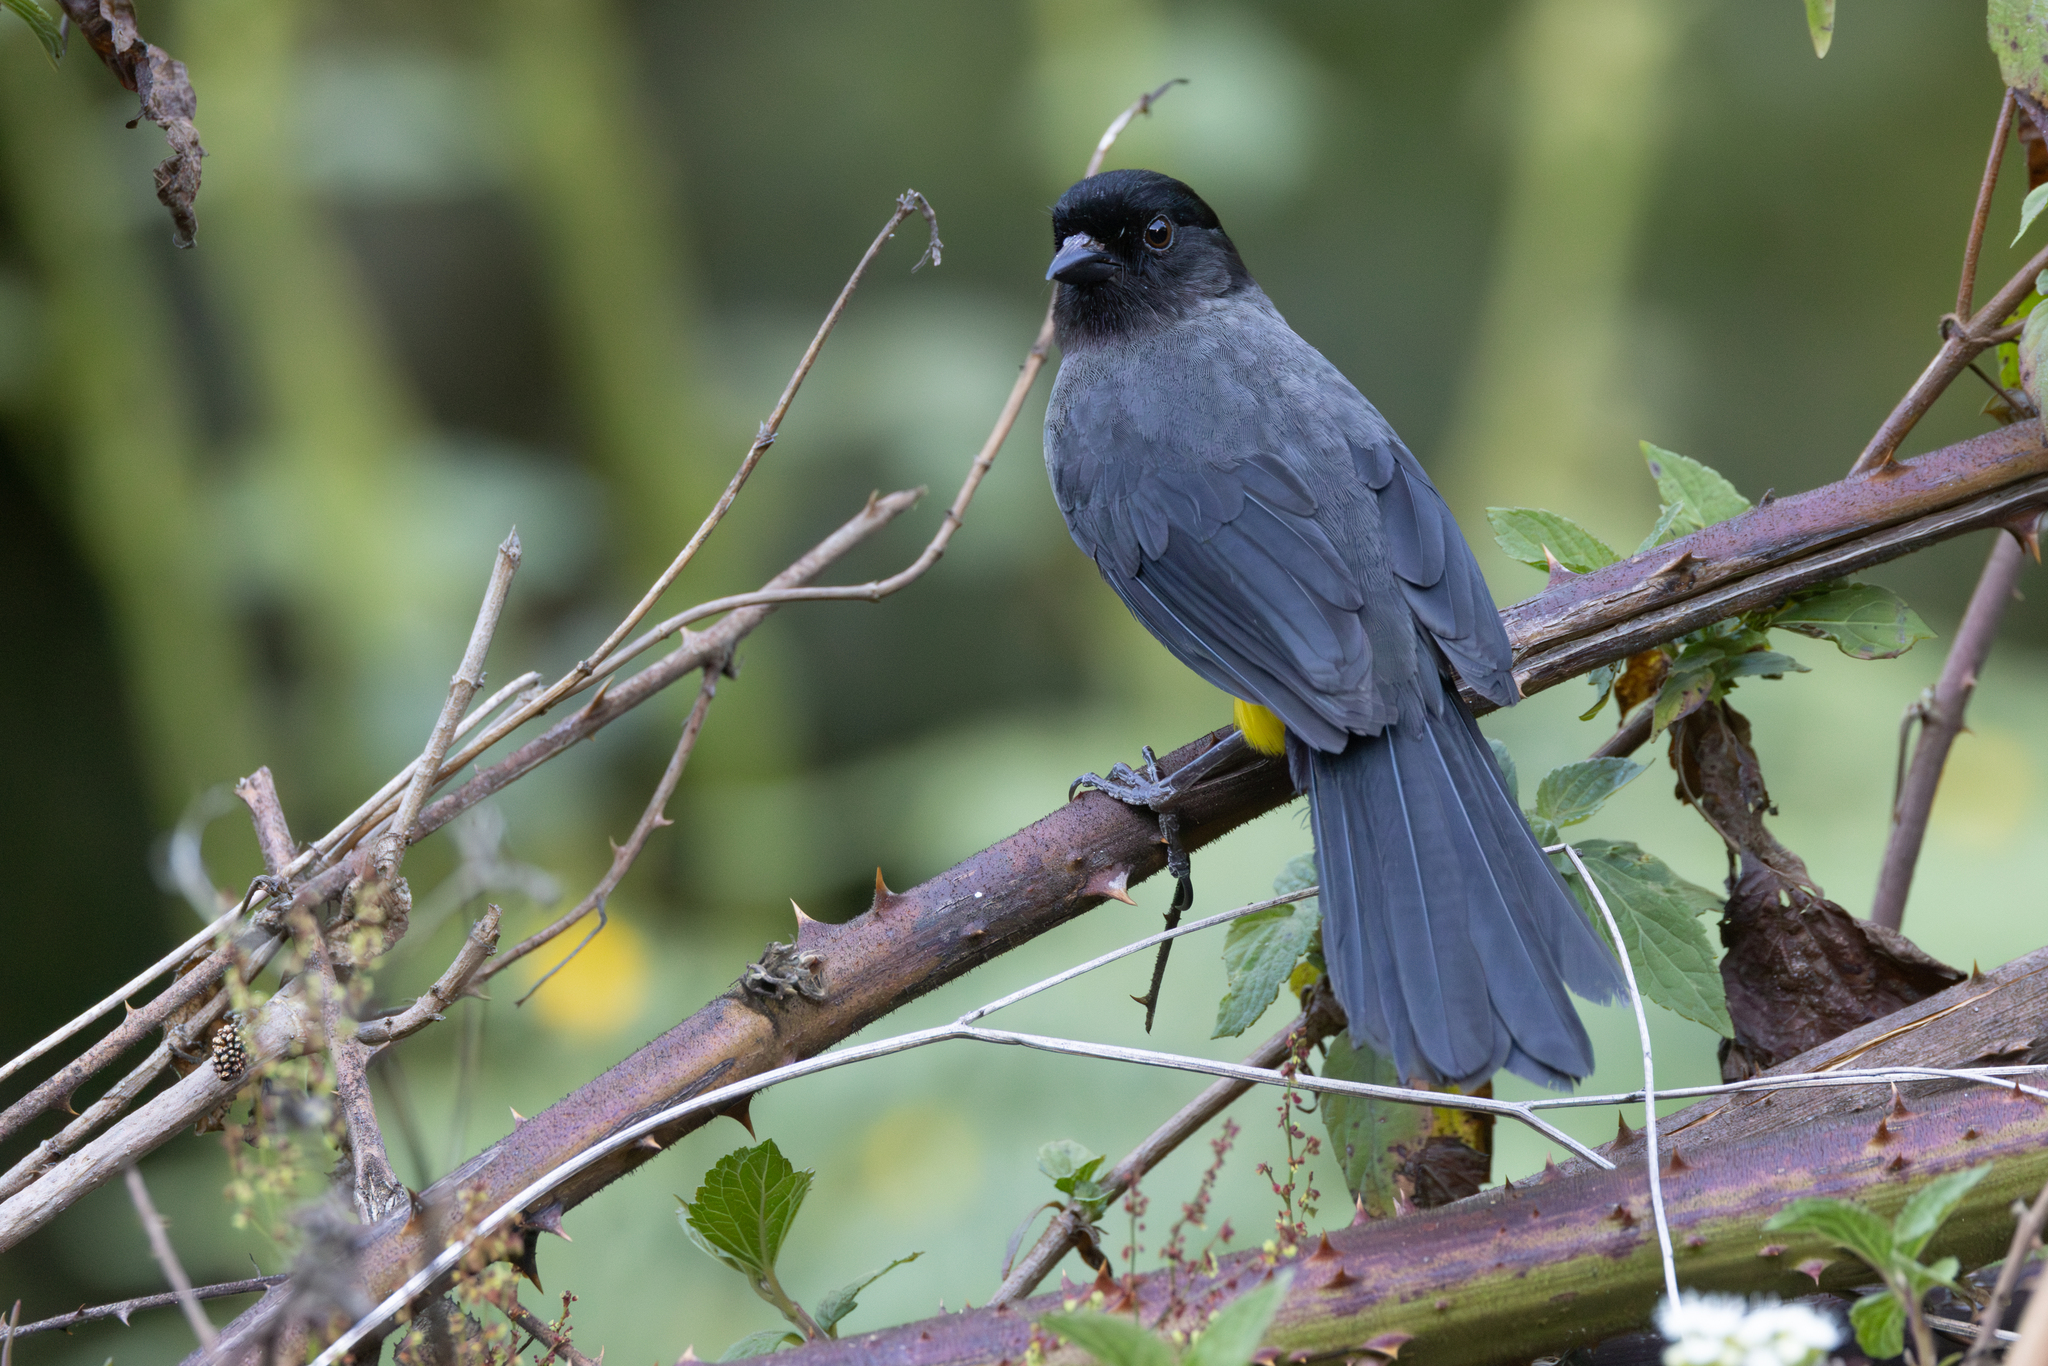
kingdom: Animalia
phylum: Chordata
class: Aves
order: Passeriformes
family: Passerellidae
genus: Atlapetes
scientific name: Atlapetes tibialis
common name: Yellow-thighed brushfinch
